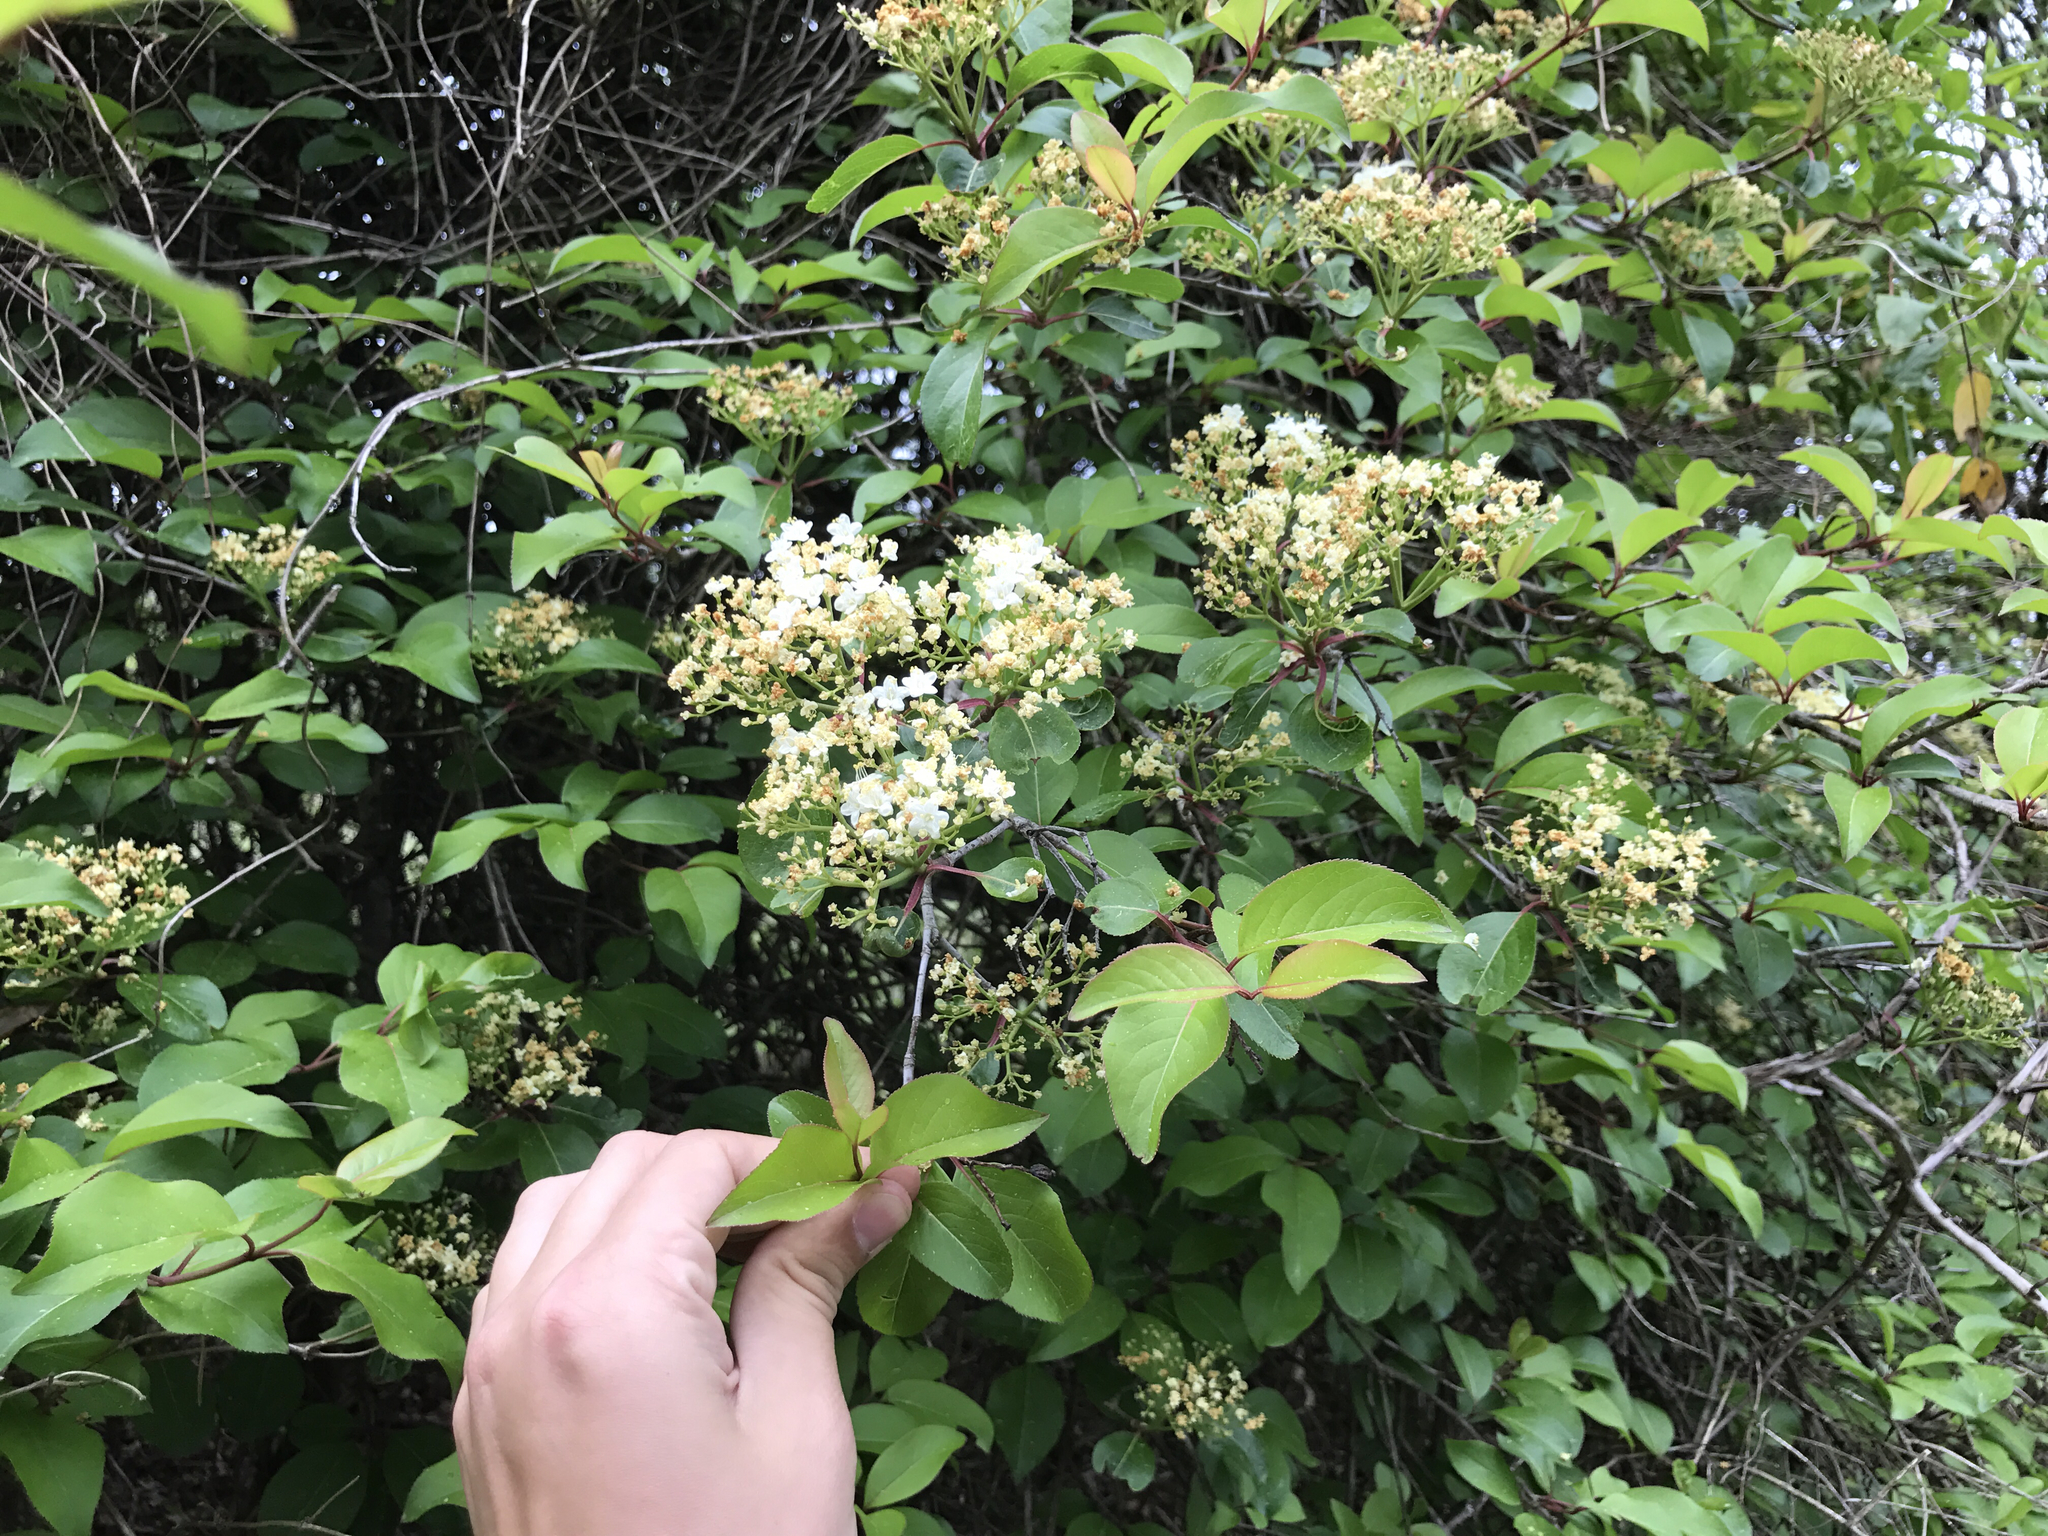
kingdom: Plantae
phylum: Tracheophyta
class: Magnoliopsida
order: Dipsacales
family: Viburnaceae
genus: Viburnum
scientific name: Viburnum prunifolium
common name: Black haw
